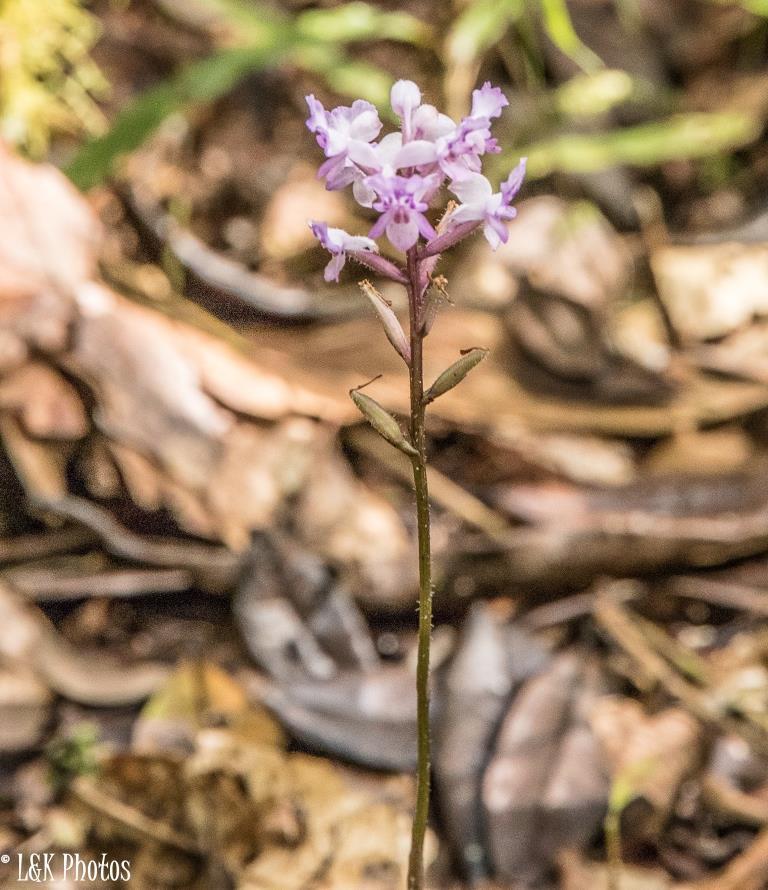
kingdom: Plantae
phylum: Tracheophyta
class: Liliopsida
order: Asparagales
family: Orchidaceae
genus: Cynorkis
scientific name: Cynorkis ridleyi
